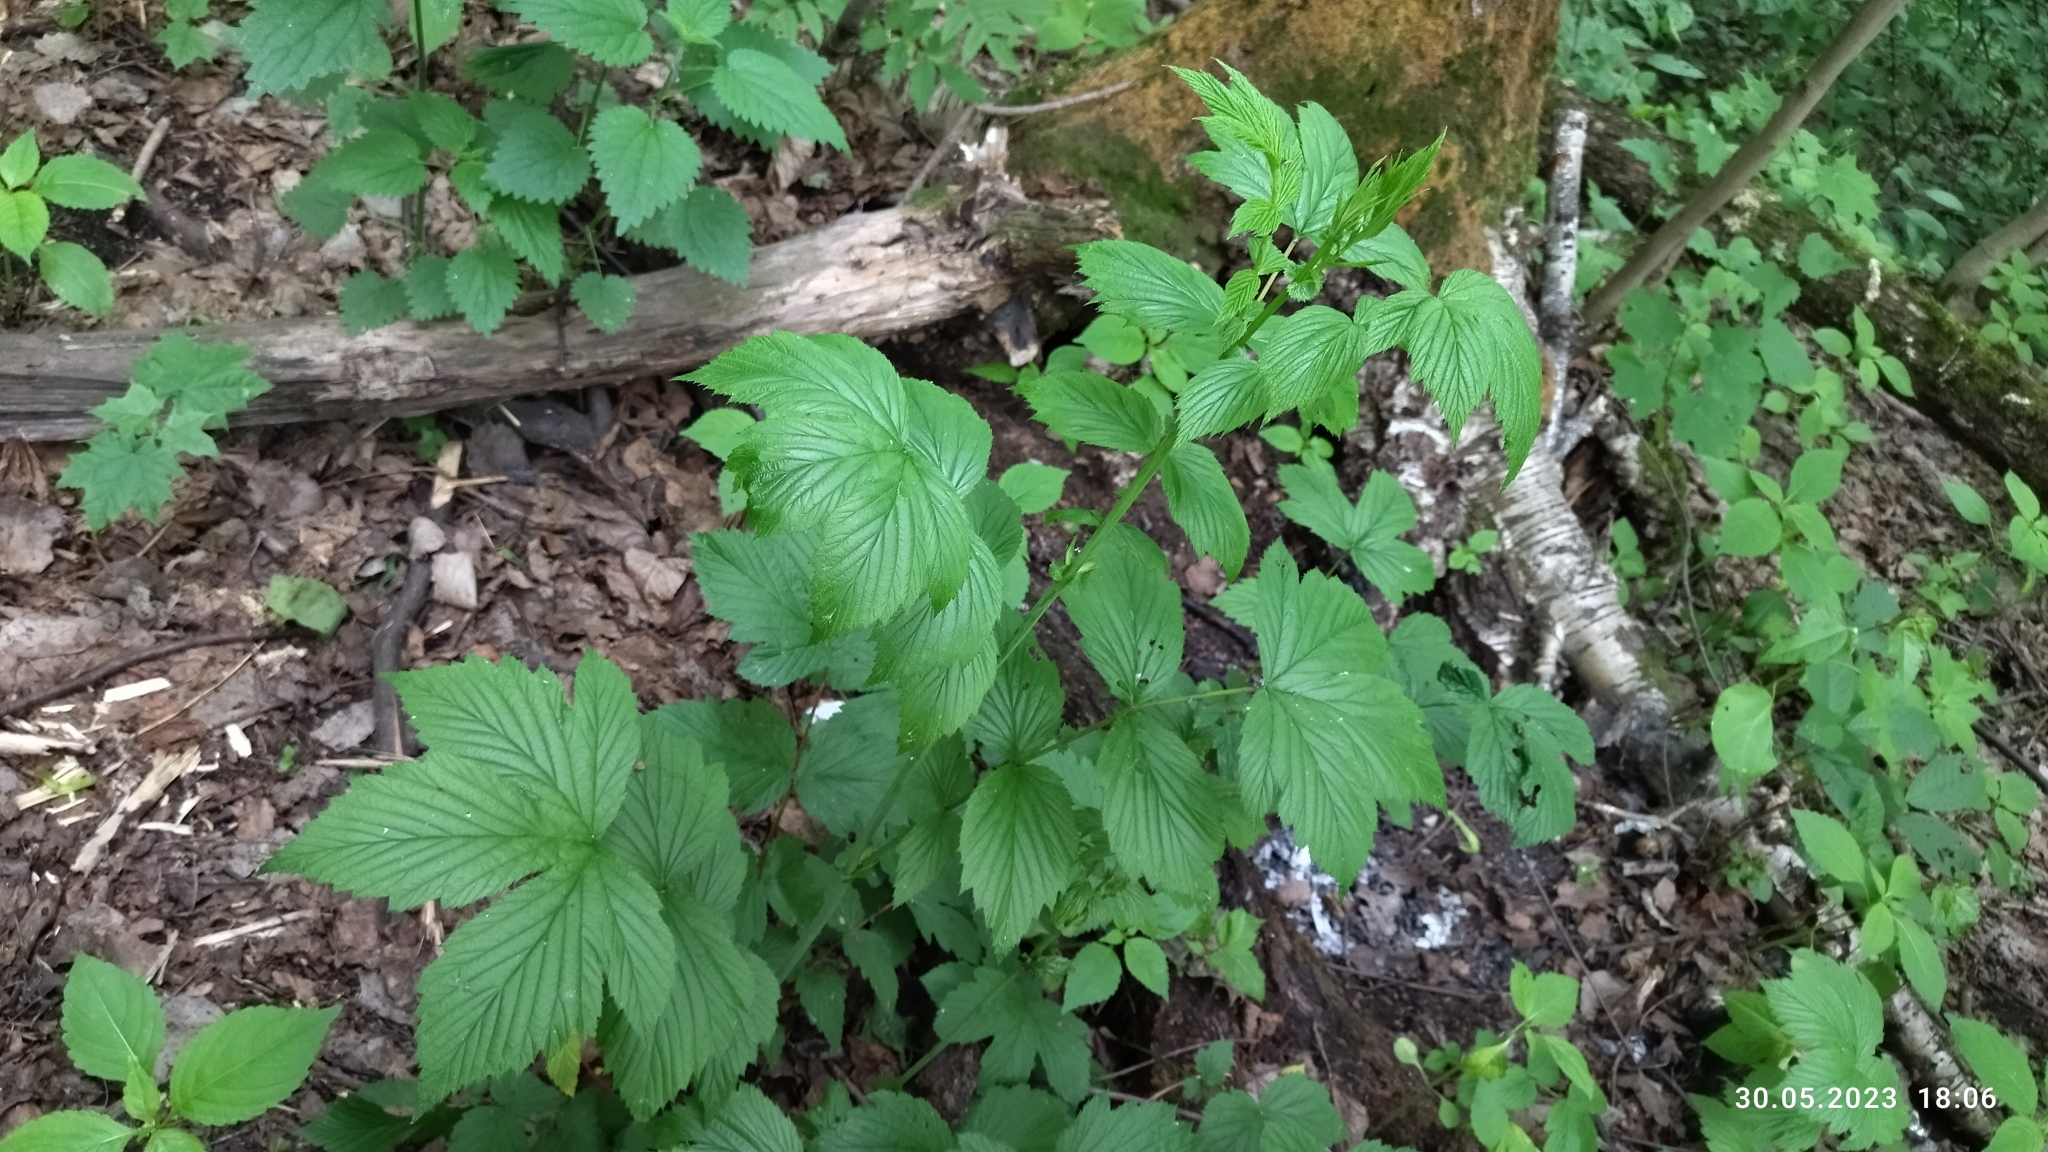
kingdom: Plantae
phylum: Tracheophyta
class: Magnoliopsida
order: Rosales
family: Rosaceae
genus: Filipendula
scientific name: Filipendula ulmaria
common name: Meadowsweet
